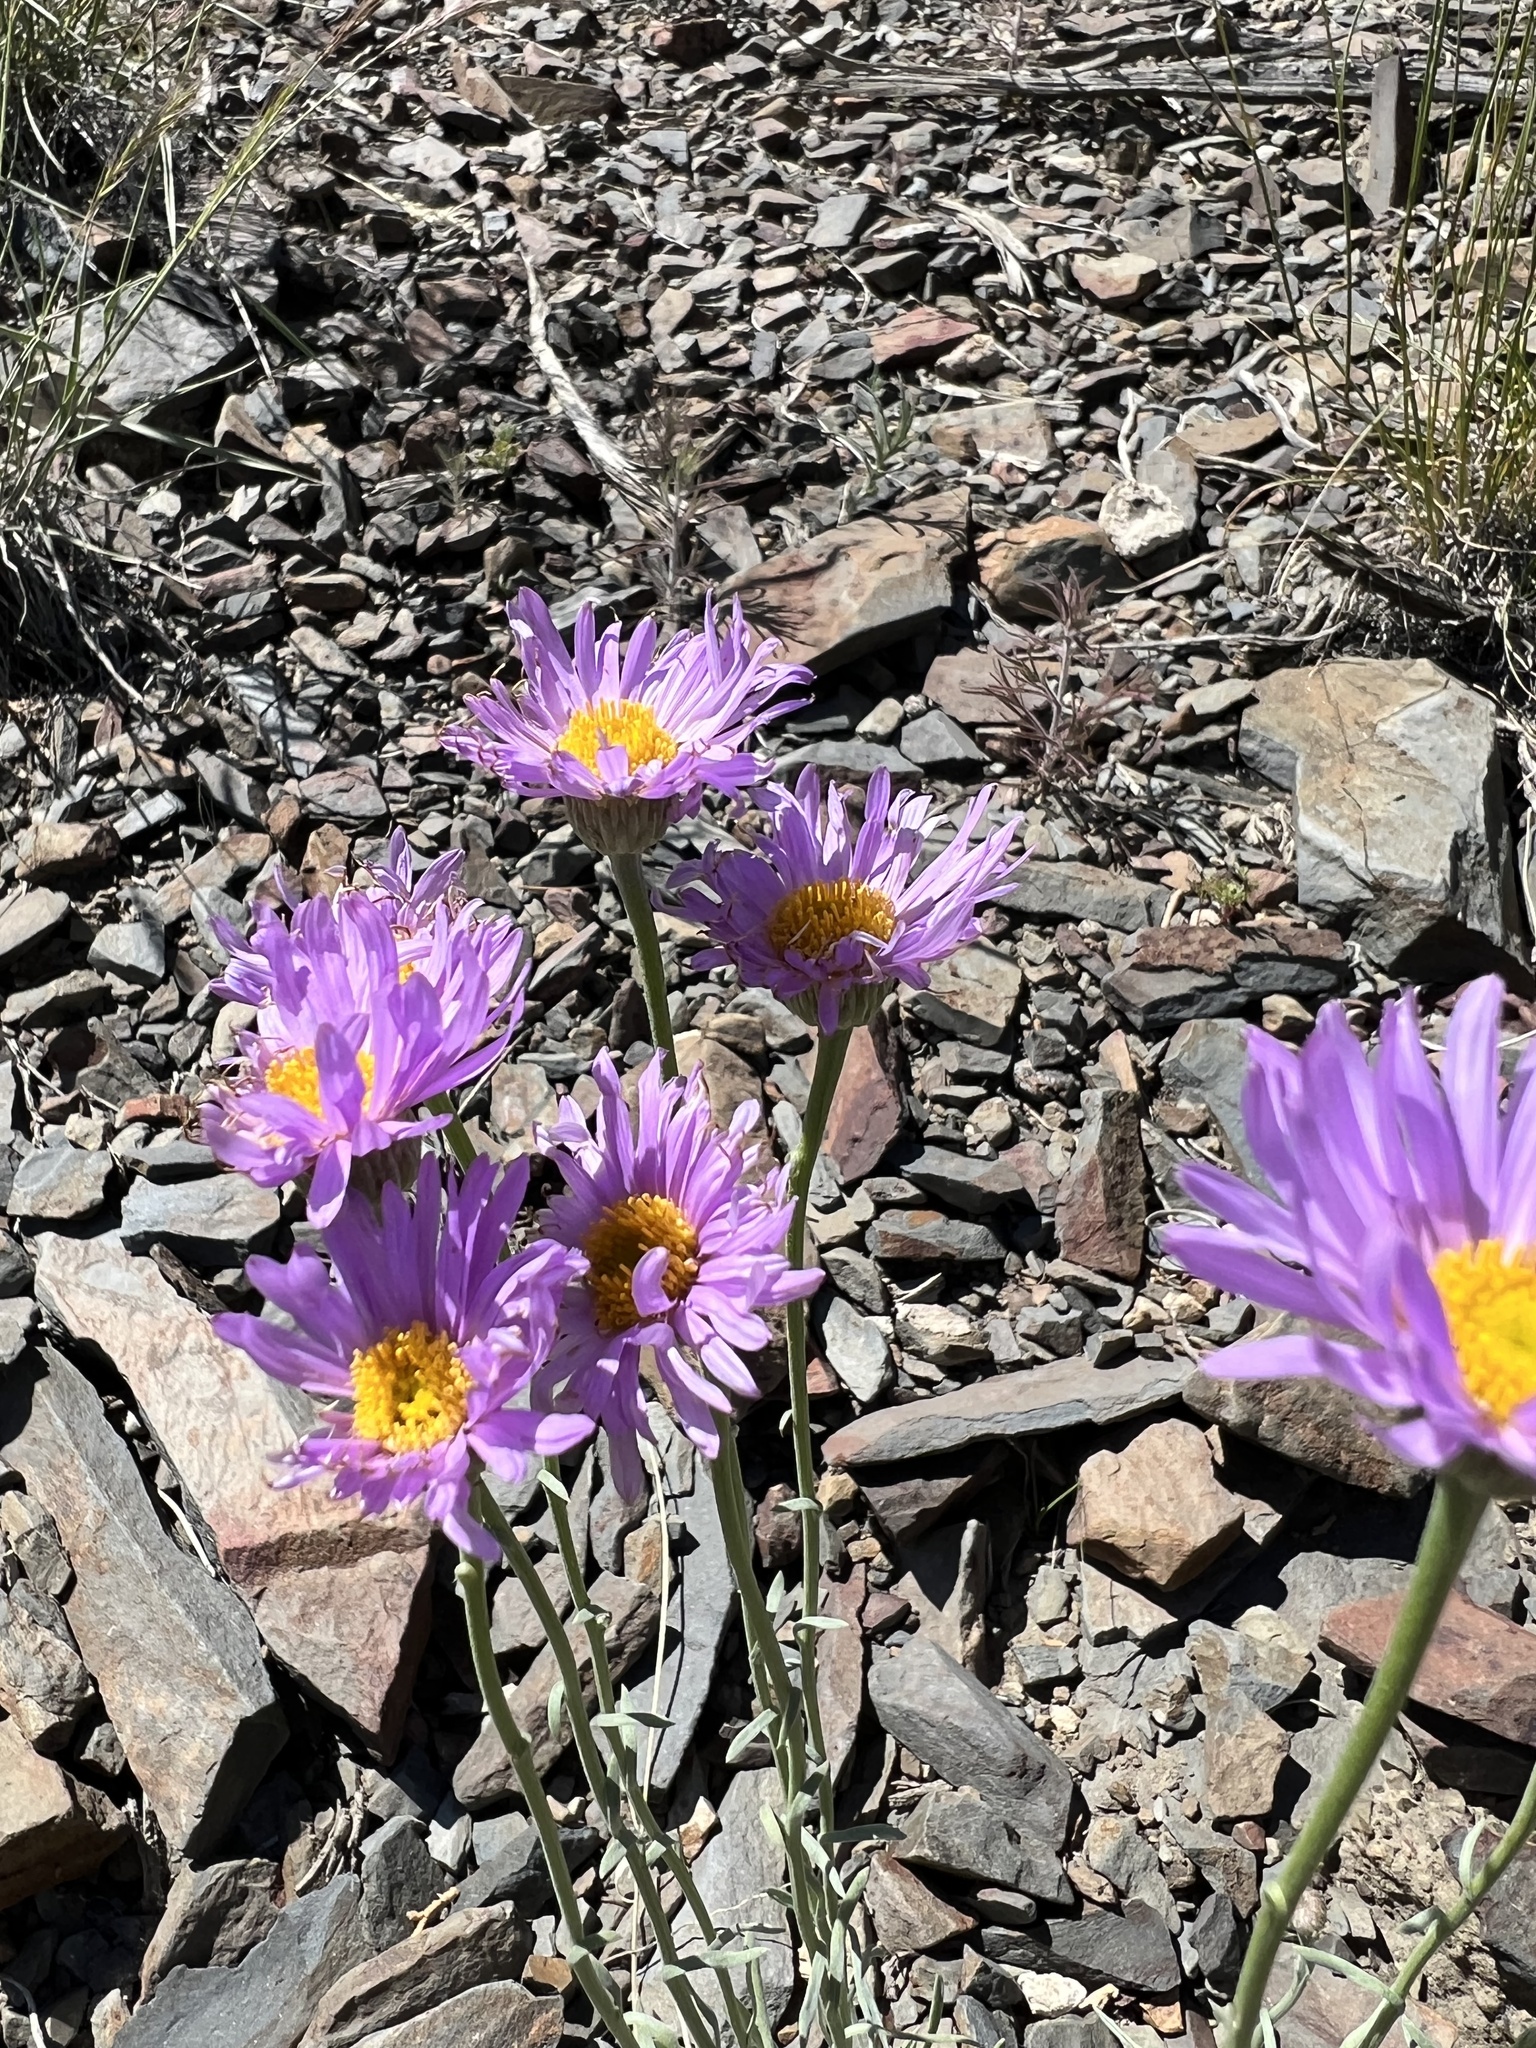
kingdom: Plantae
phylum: Tracheophyta
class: Magnoliopsida
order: Asterales
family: Asteraceae
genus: Erigeron
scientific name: Erigeron argentatus
